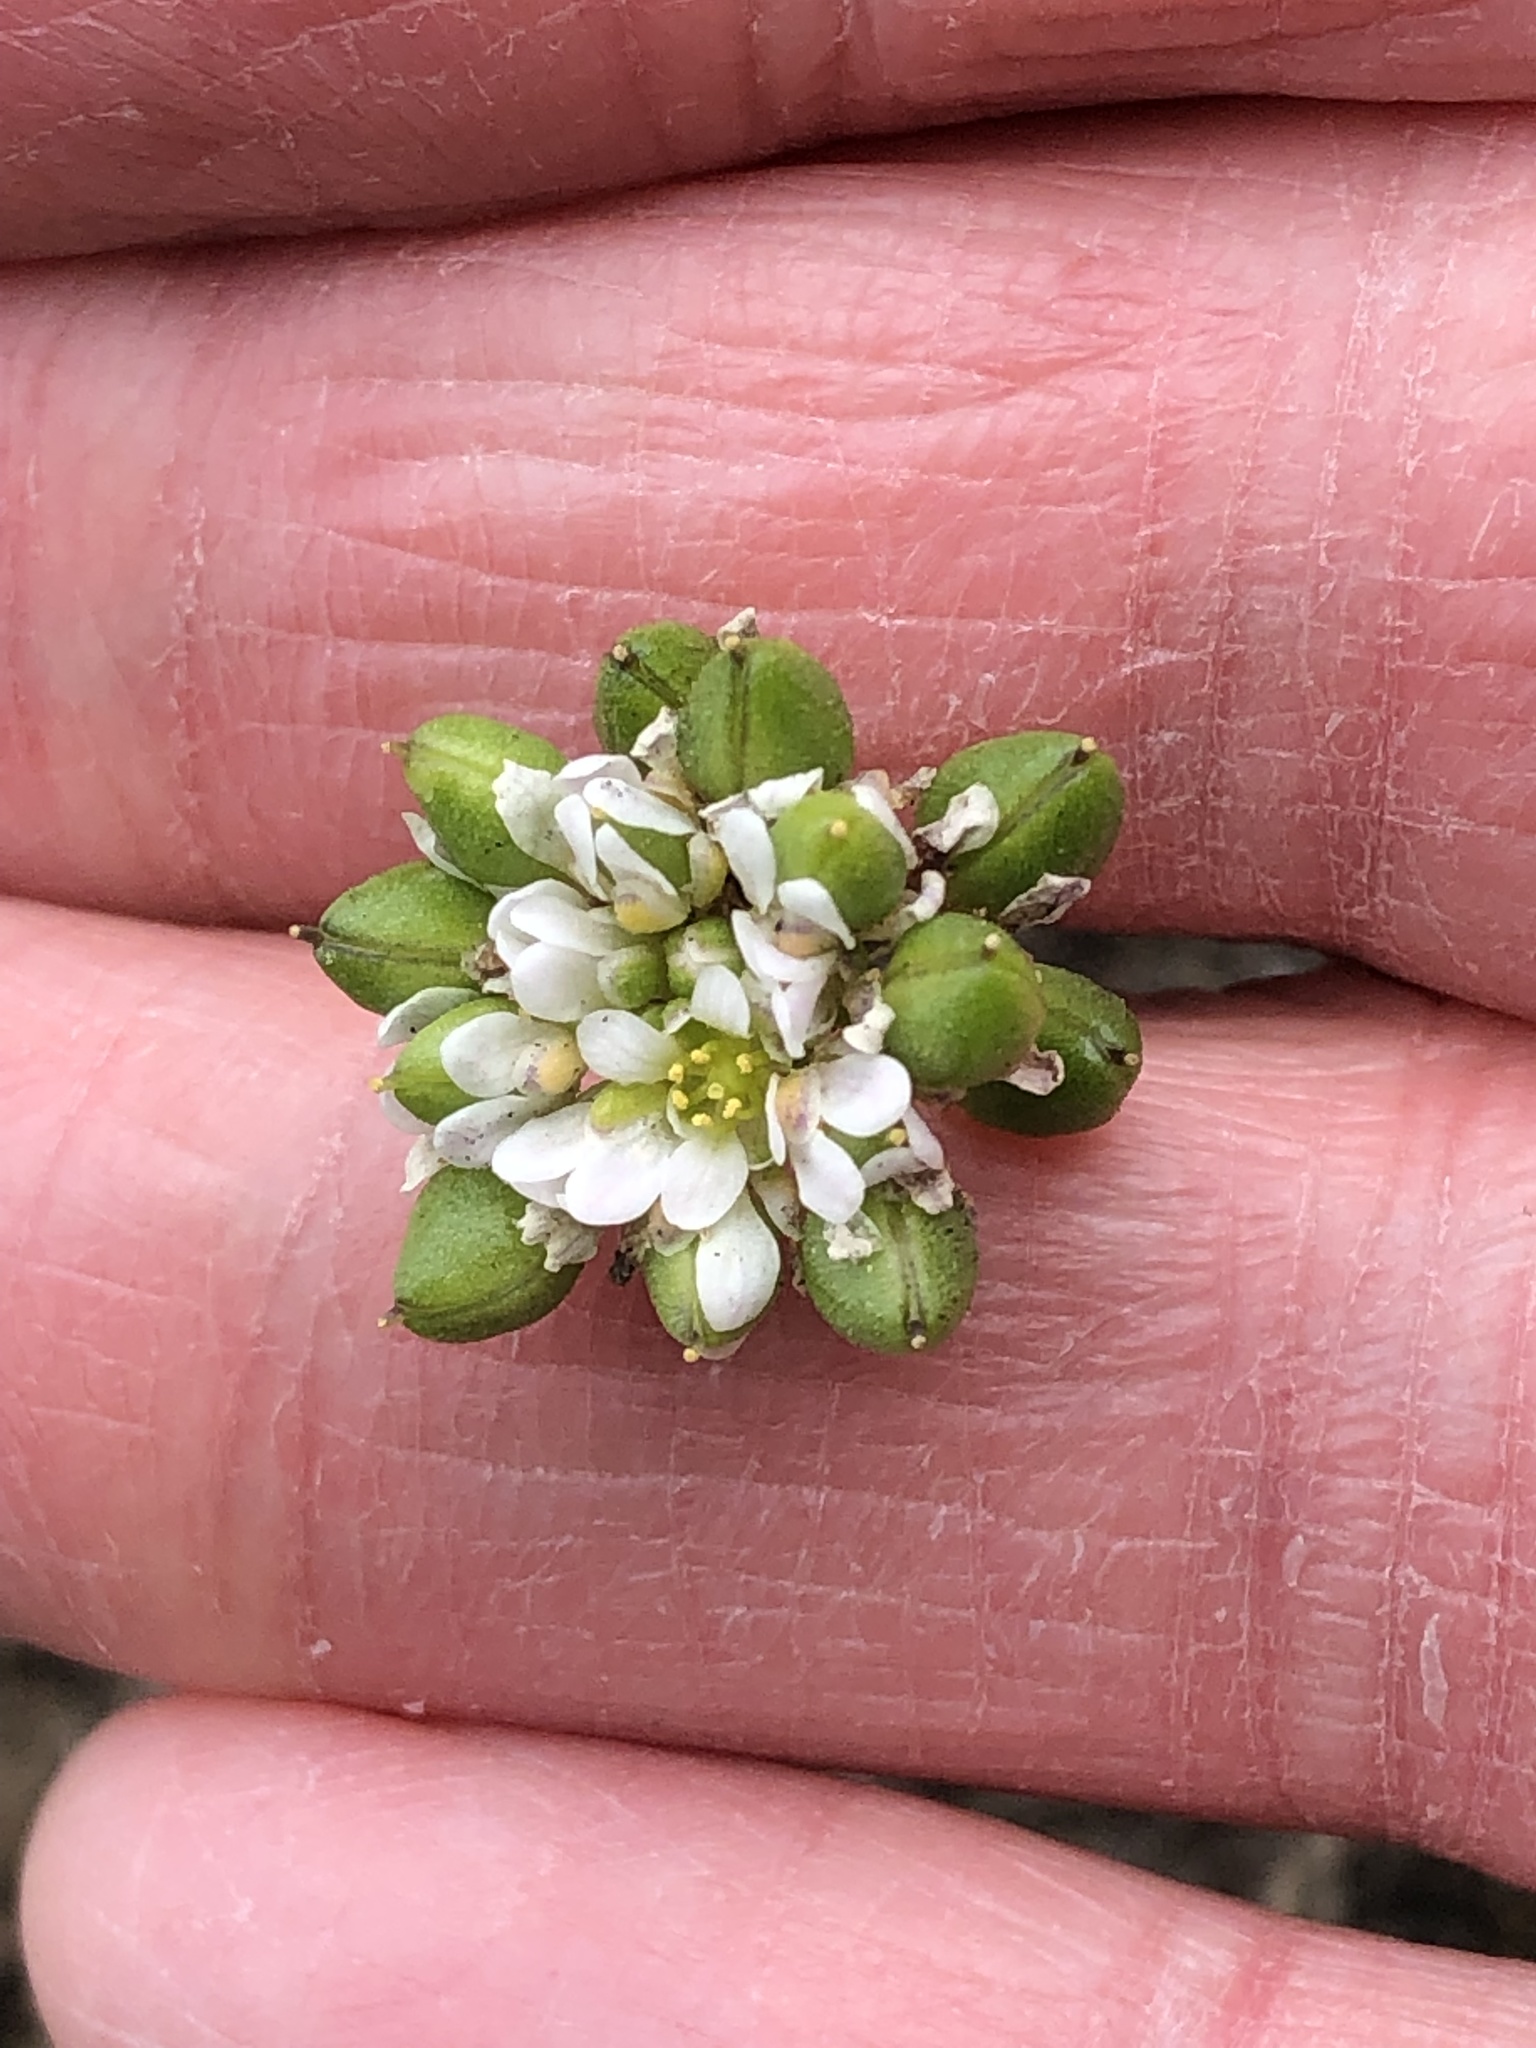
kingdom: Plantae
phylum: Tracheophyta
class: Magnoliopsida
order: Brassicales
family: Brassicaceae
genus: Cochlearia
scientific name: Cochlearia danica
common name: Early scurvygrass
